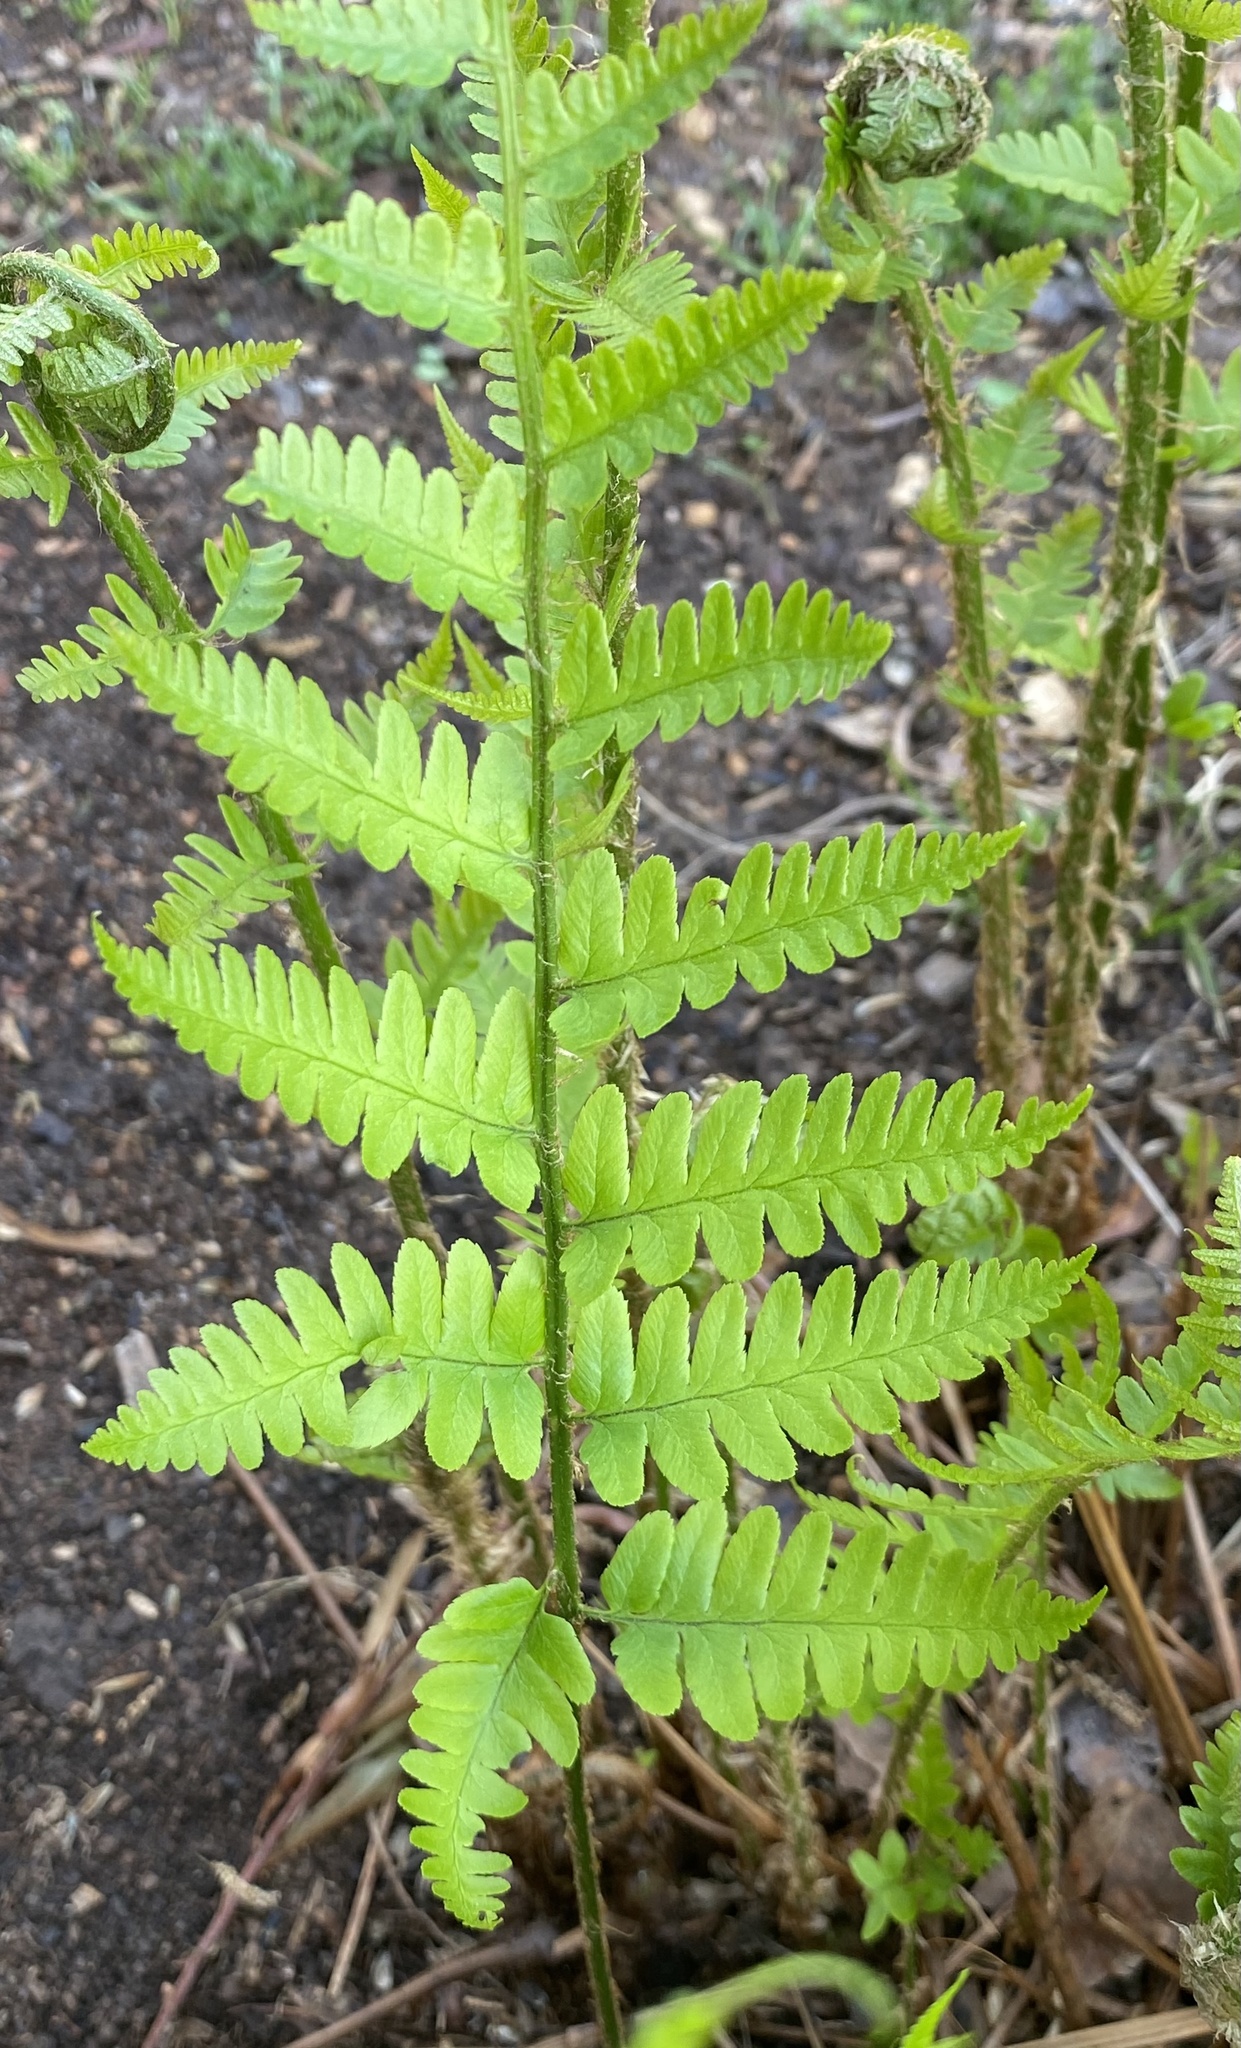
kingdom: Plantae
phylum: Tracheophyta
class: Polypodiopsida
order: Polypodiales
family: Dryopteridaceae
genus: Dryopteris
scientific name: Dryopteris ludoviciana
